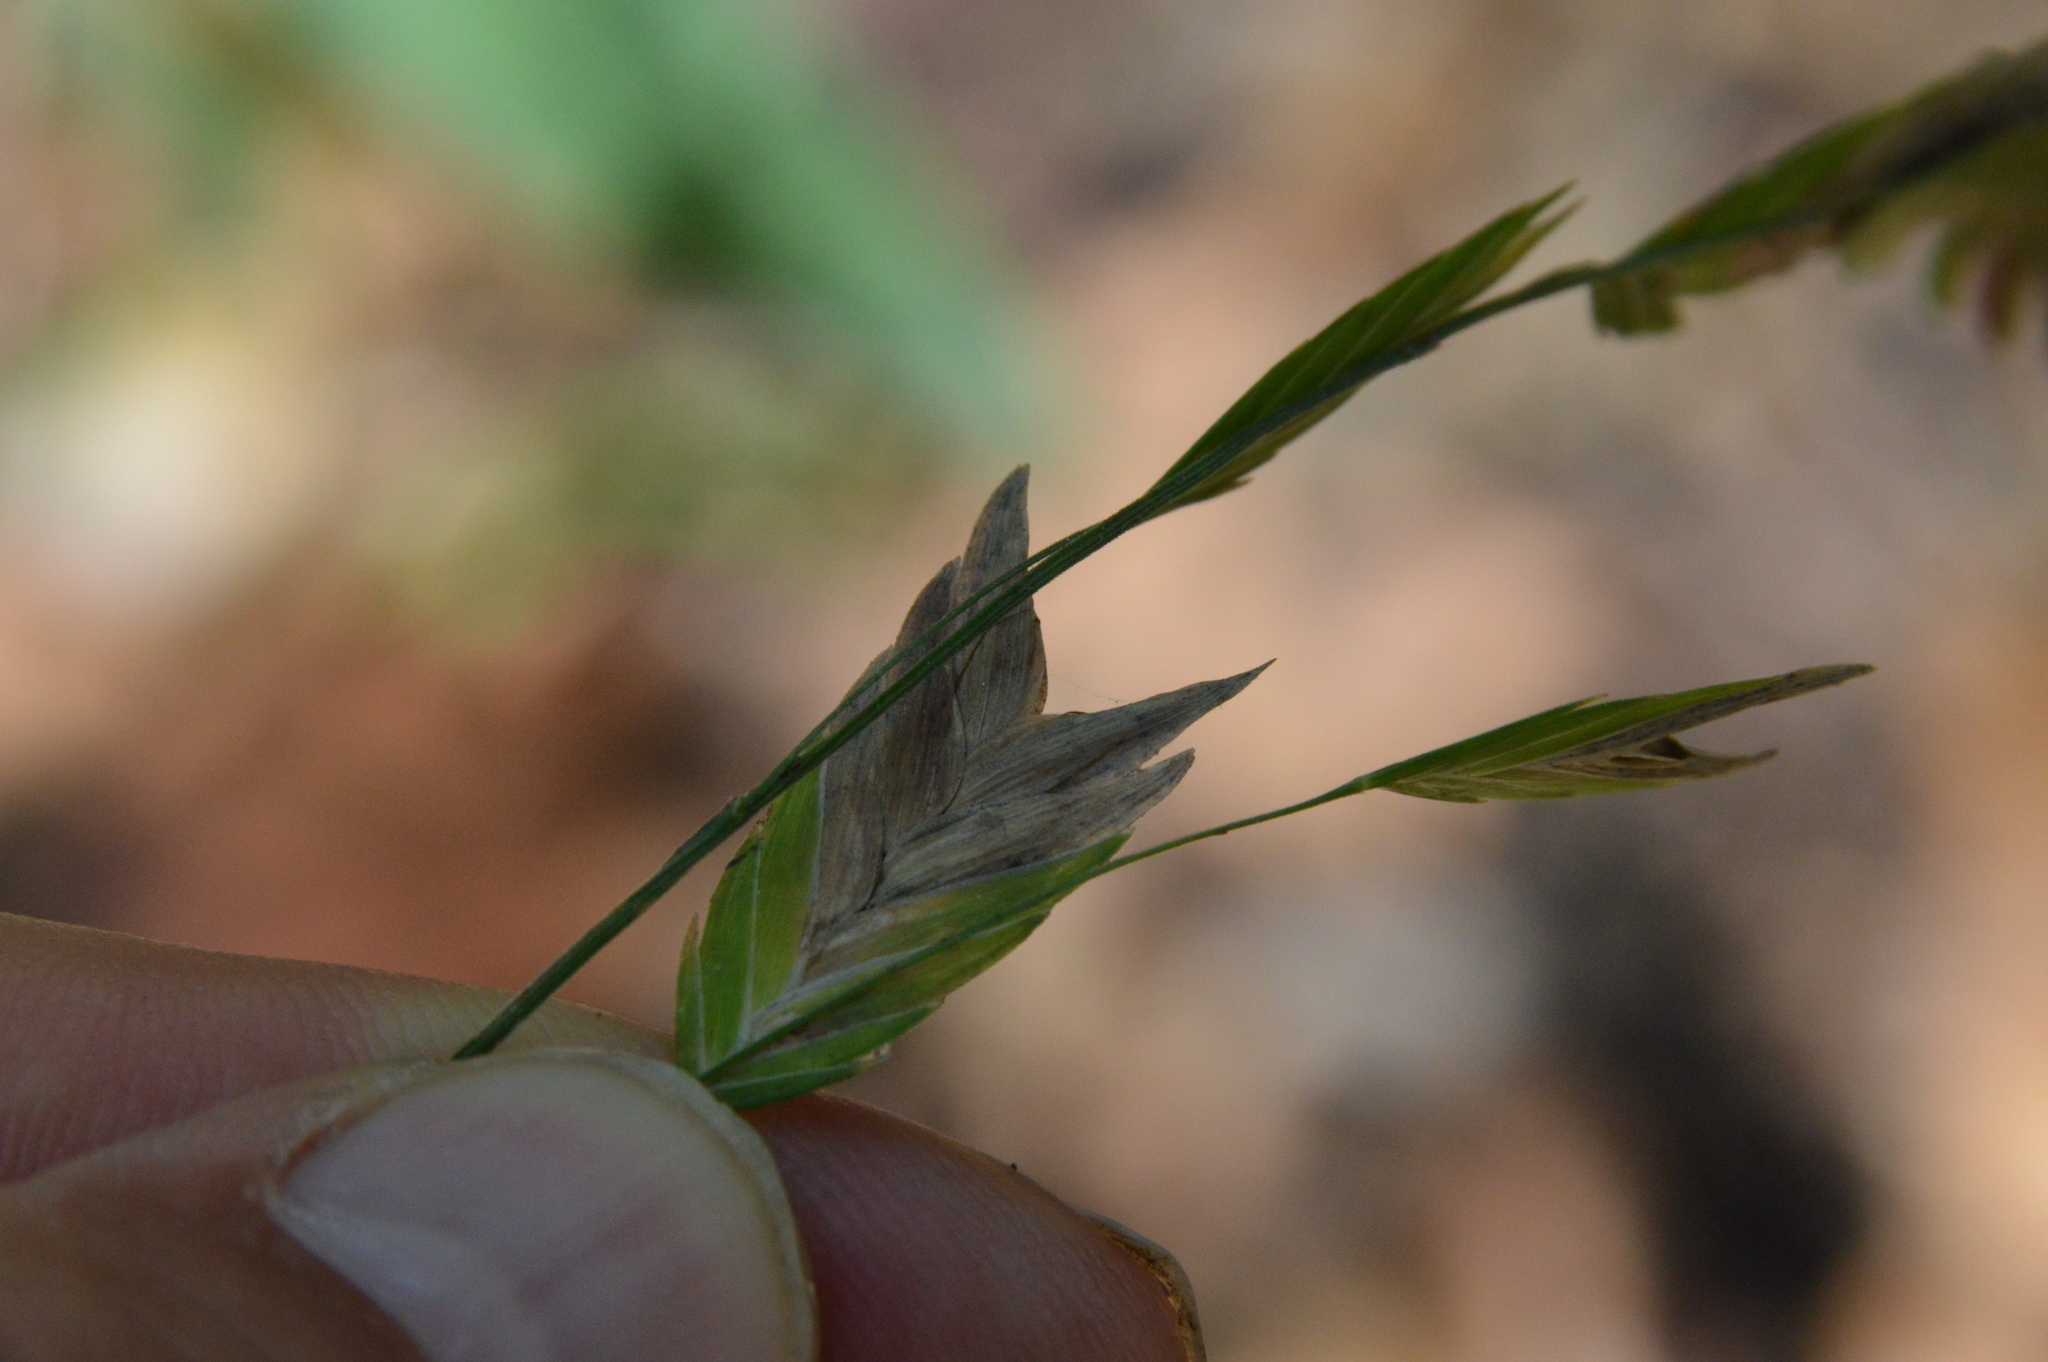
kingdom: Plantae
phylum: Tracheophyta
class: Liliopsida
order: Poales
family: Poaceae
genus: Chasmanthium
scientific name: Chasmanthium latifolium
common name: Broad-leaved chasmanthium
